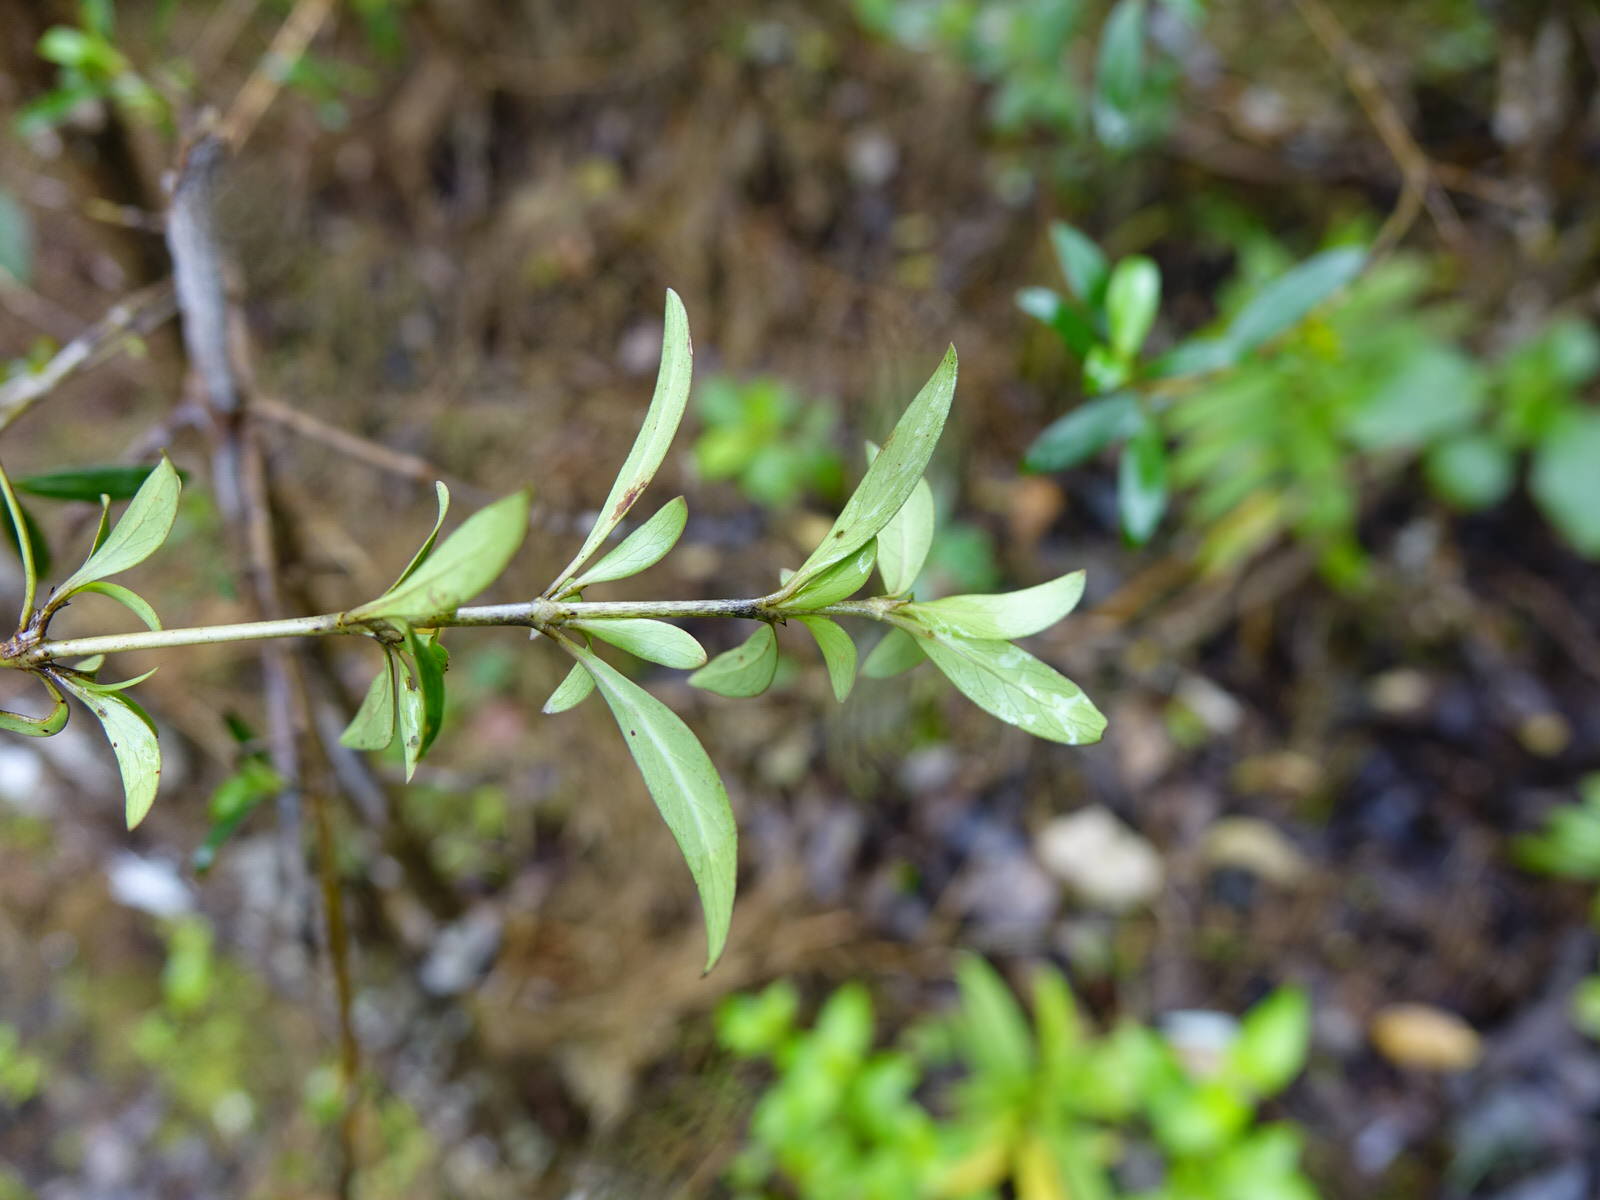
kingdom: Plantae
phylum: Tracheophyta
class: Magnoliopsida
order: Gentianales
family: Rubiaceae
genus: Coprosma
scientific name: Coprosma cunninghamii
